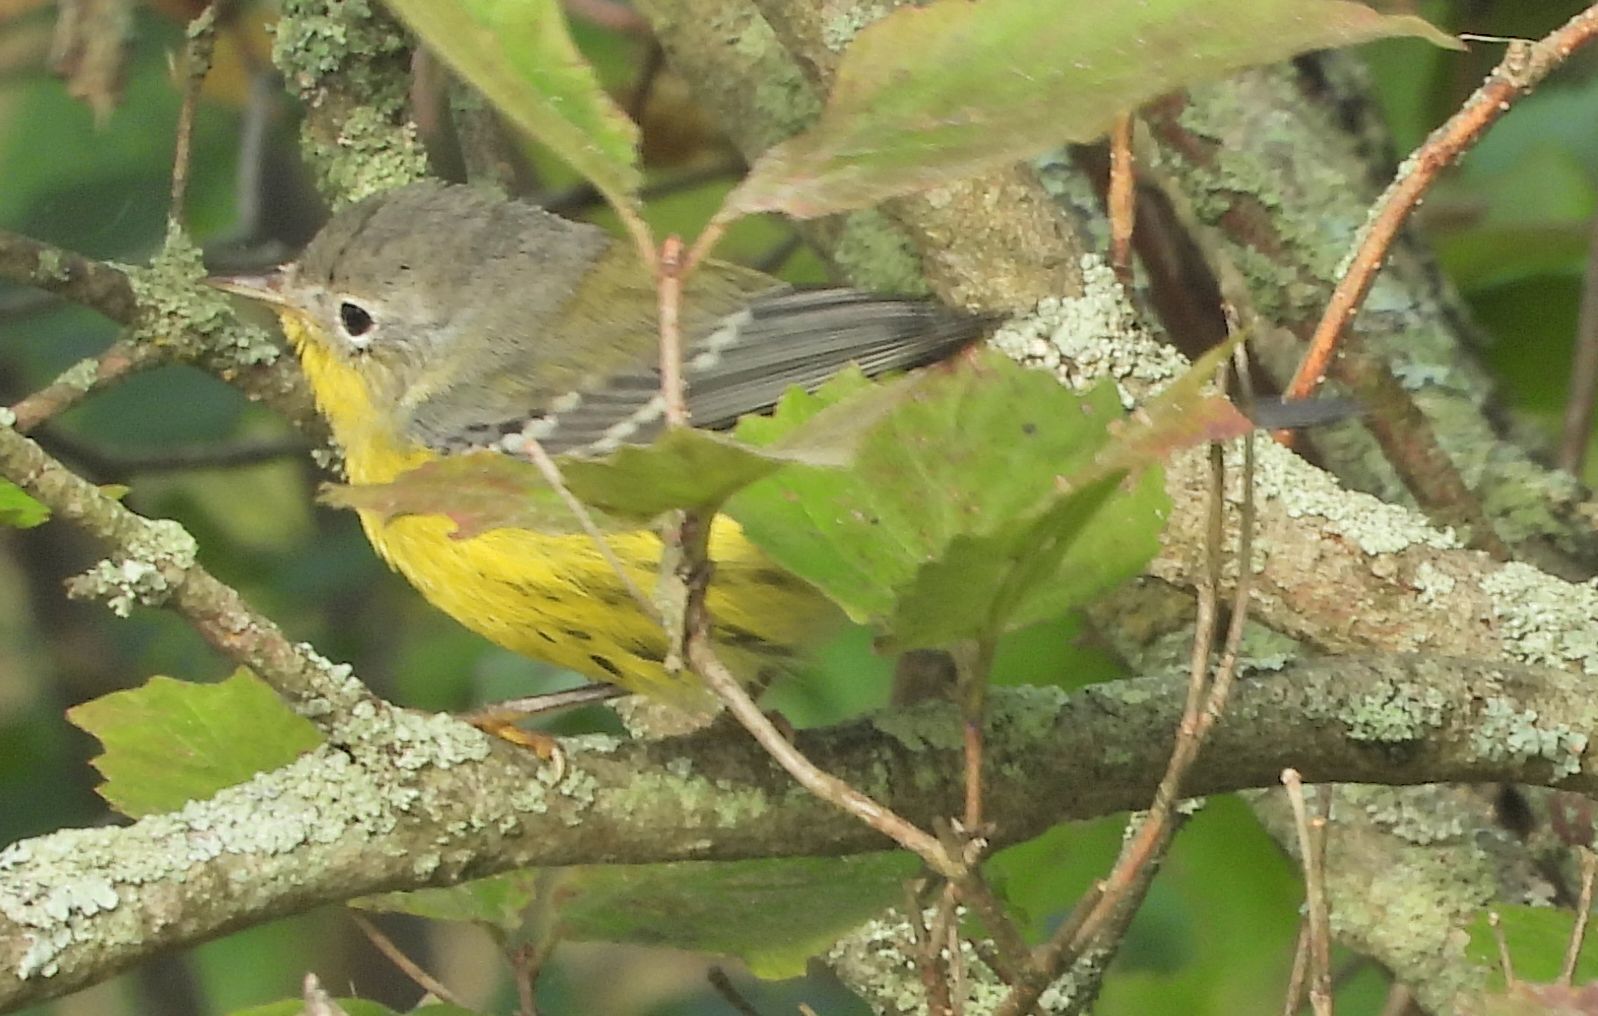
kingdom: Animalia
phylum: Chordata
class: Aves
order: Passeriformes
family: Parulidae
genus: Setophaga
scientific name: Setophaga magnolia
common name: Magnolia warbler
